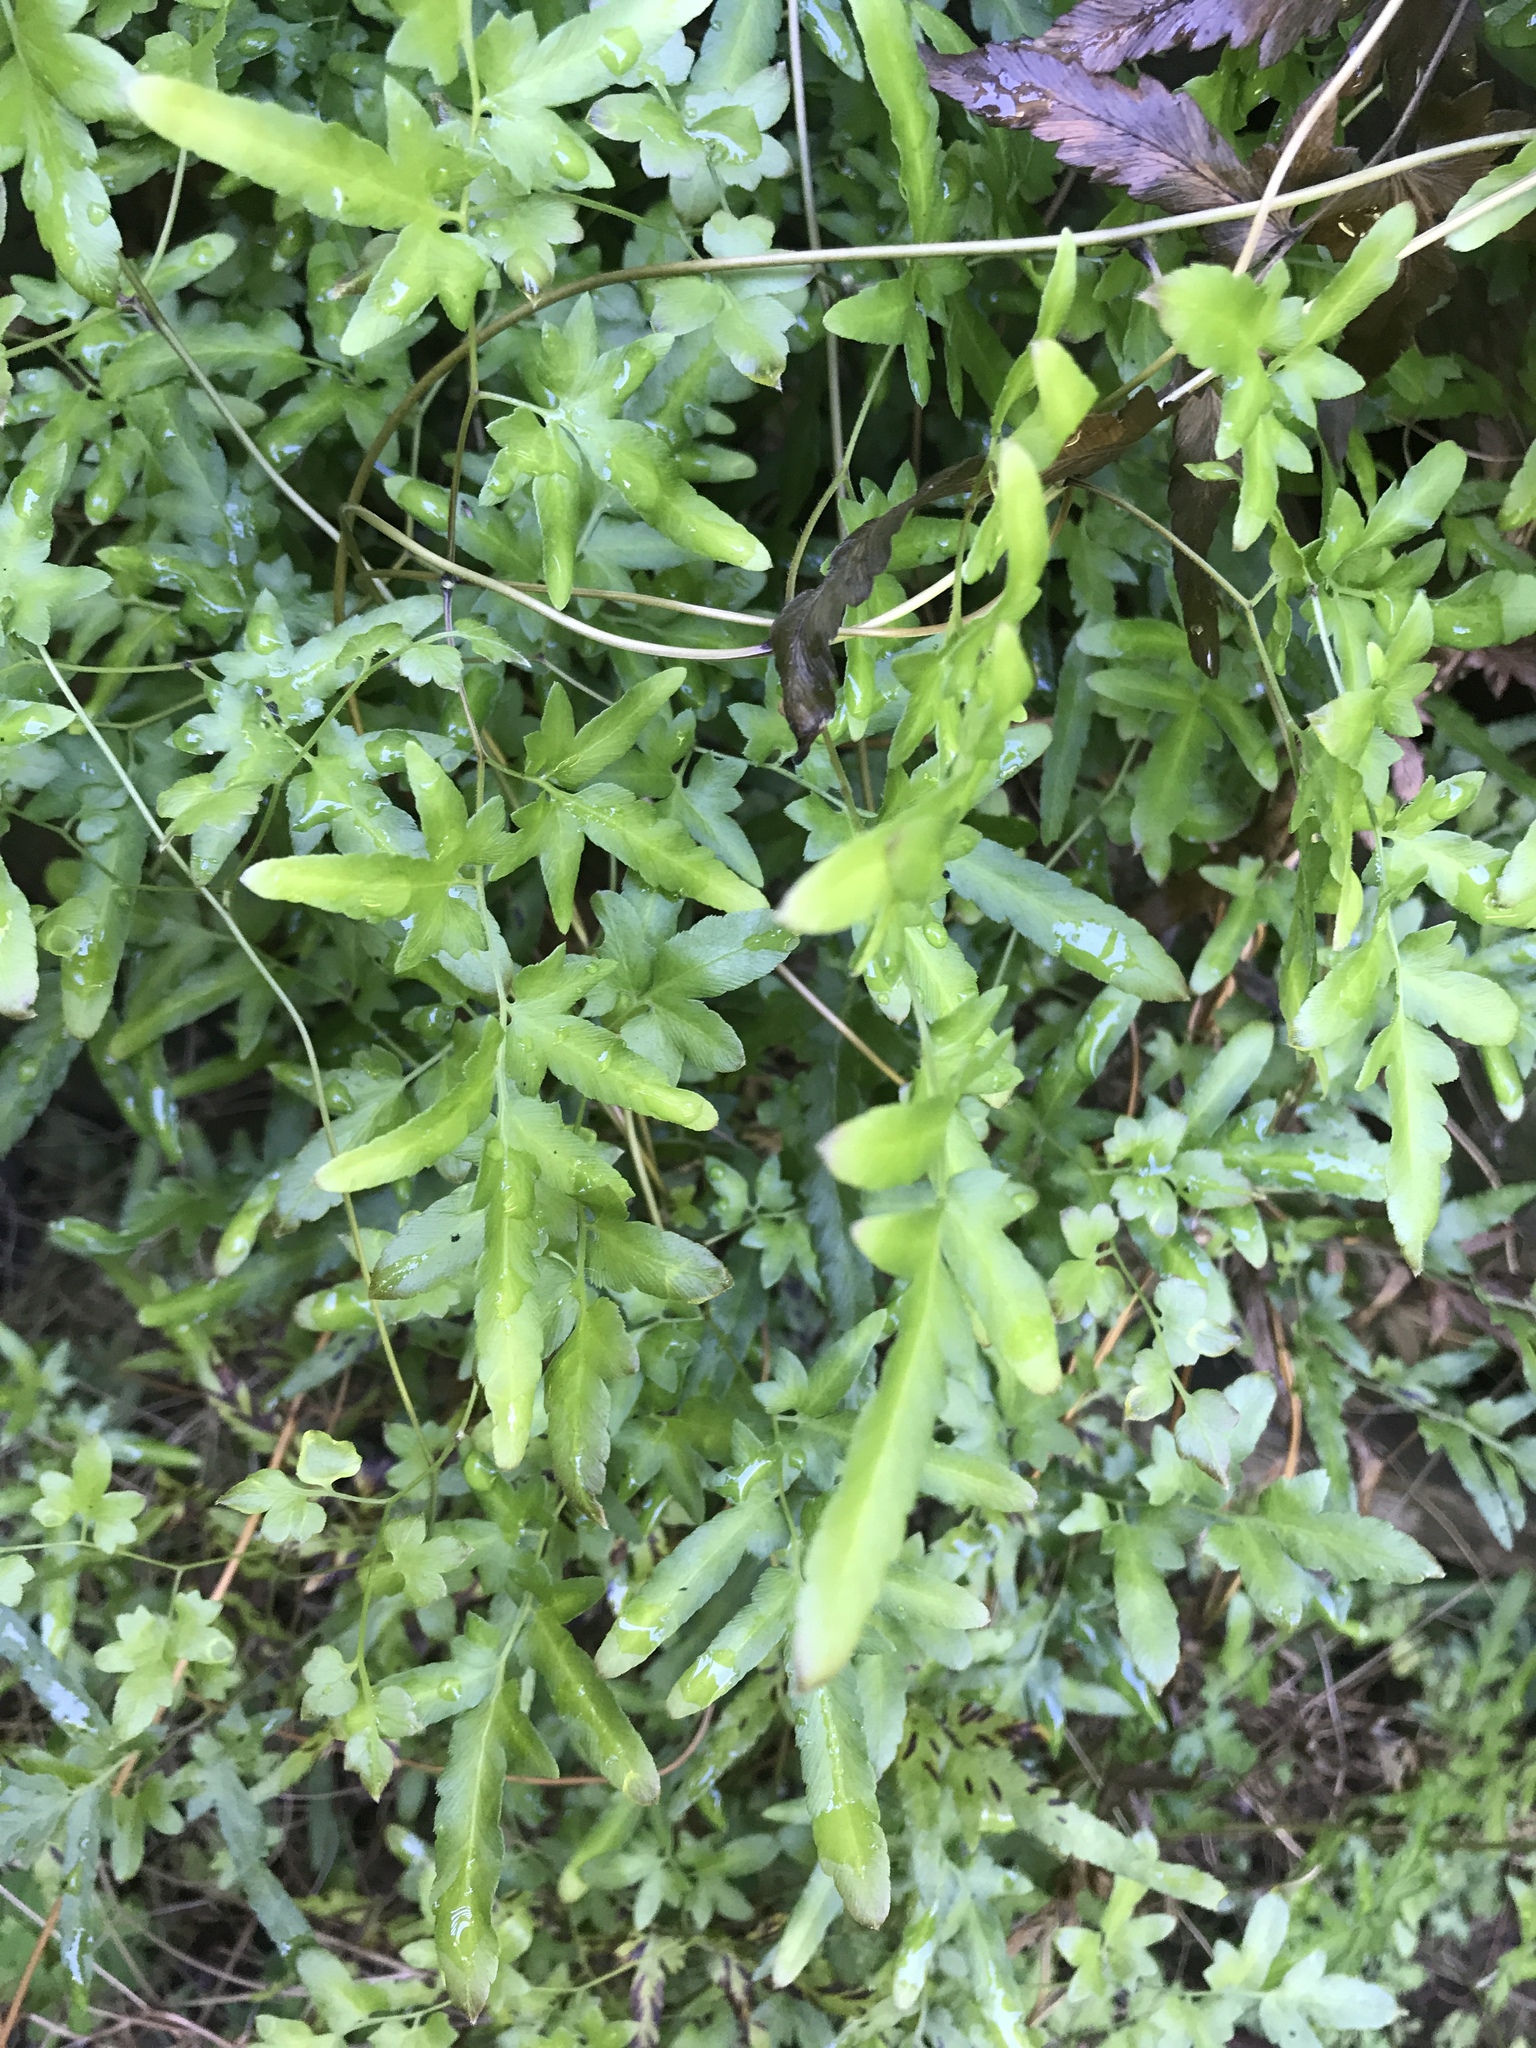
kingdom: Plantae
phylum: Tracheophyta
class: Polypodiopsida
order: Schizaeales
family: Lygodiaceae
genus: Lygodium
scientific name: Lygodium japonicum
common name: Japanese climbing fern
